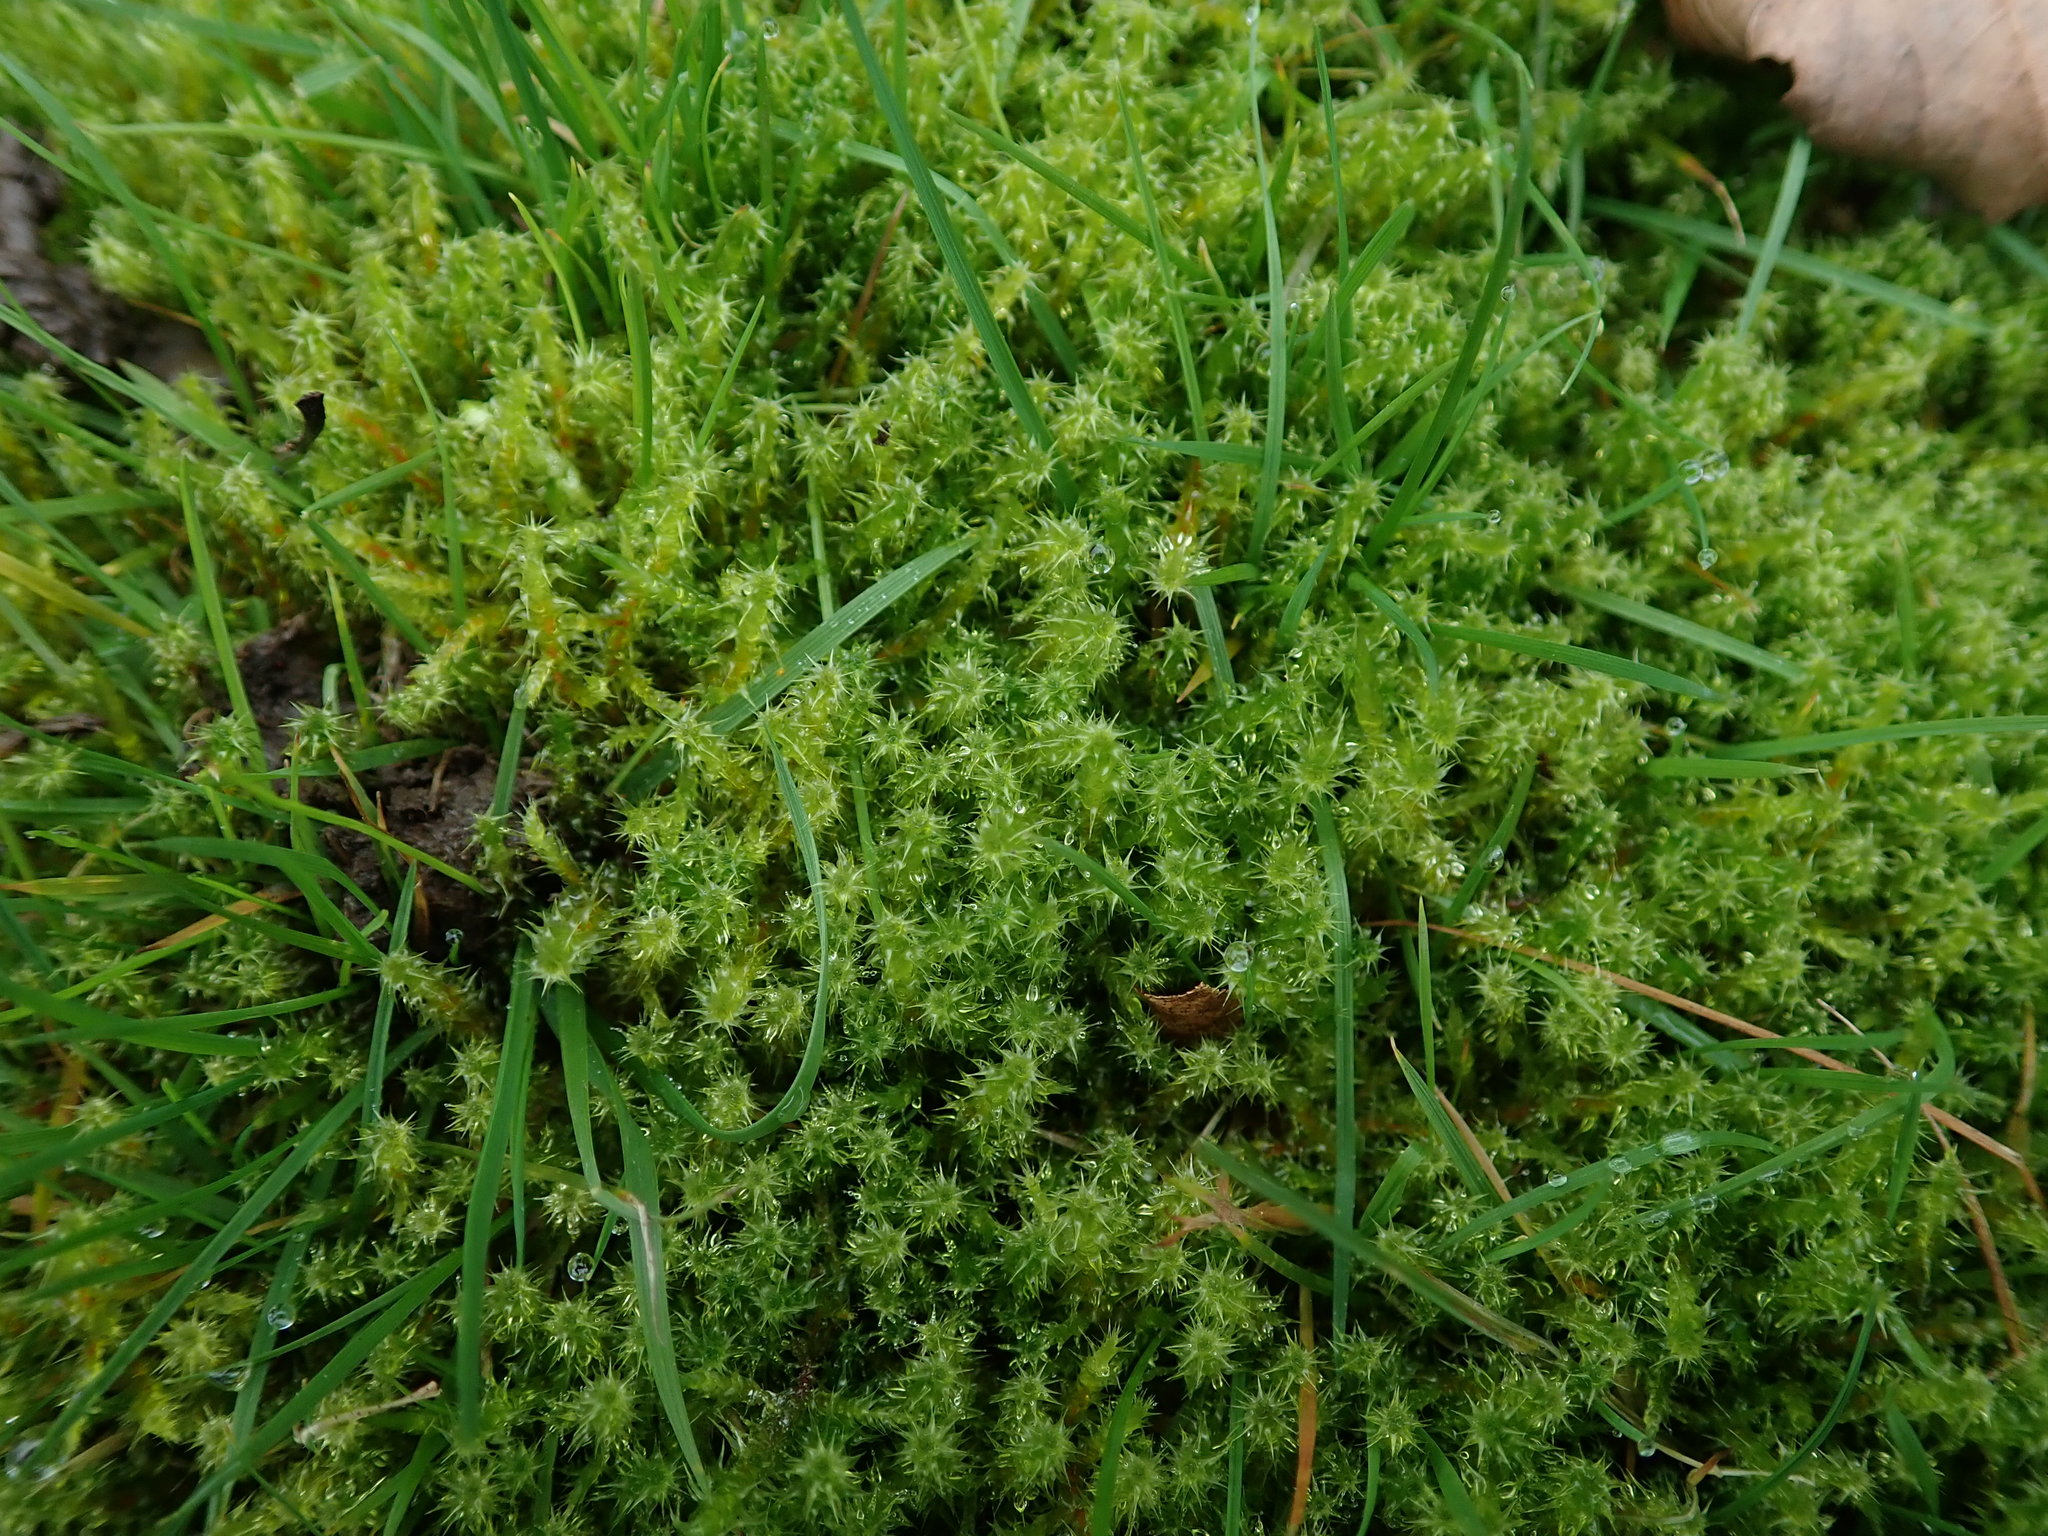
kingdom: Plantae
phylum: Bryophyta
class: Bryopsida
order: Hypnales
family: Hylocomiaceae
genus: Rhytidiadelphus
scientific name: Rhytidiadelphus squarrosus
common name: Springy turf-moss
